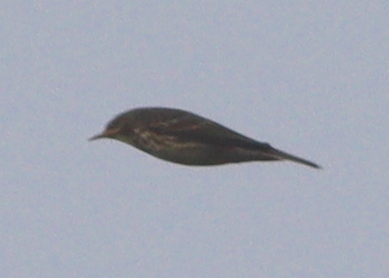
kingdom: Animalia
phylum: Chordata
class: Aves
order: Passeriformes
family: Motacillidae
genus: Anthus
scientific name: Anthus petrosus
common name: Eurasian rock pipit
